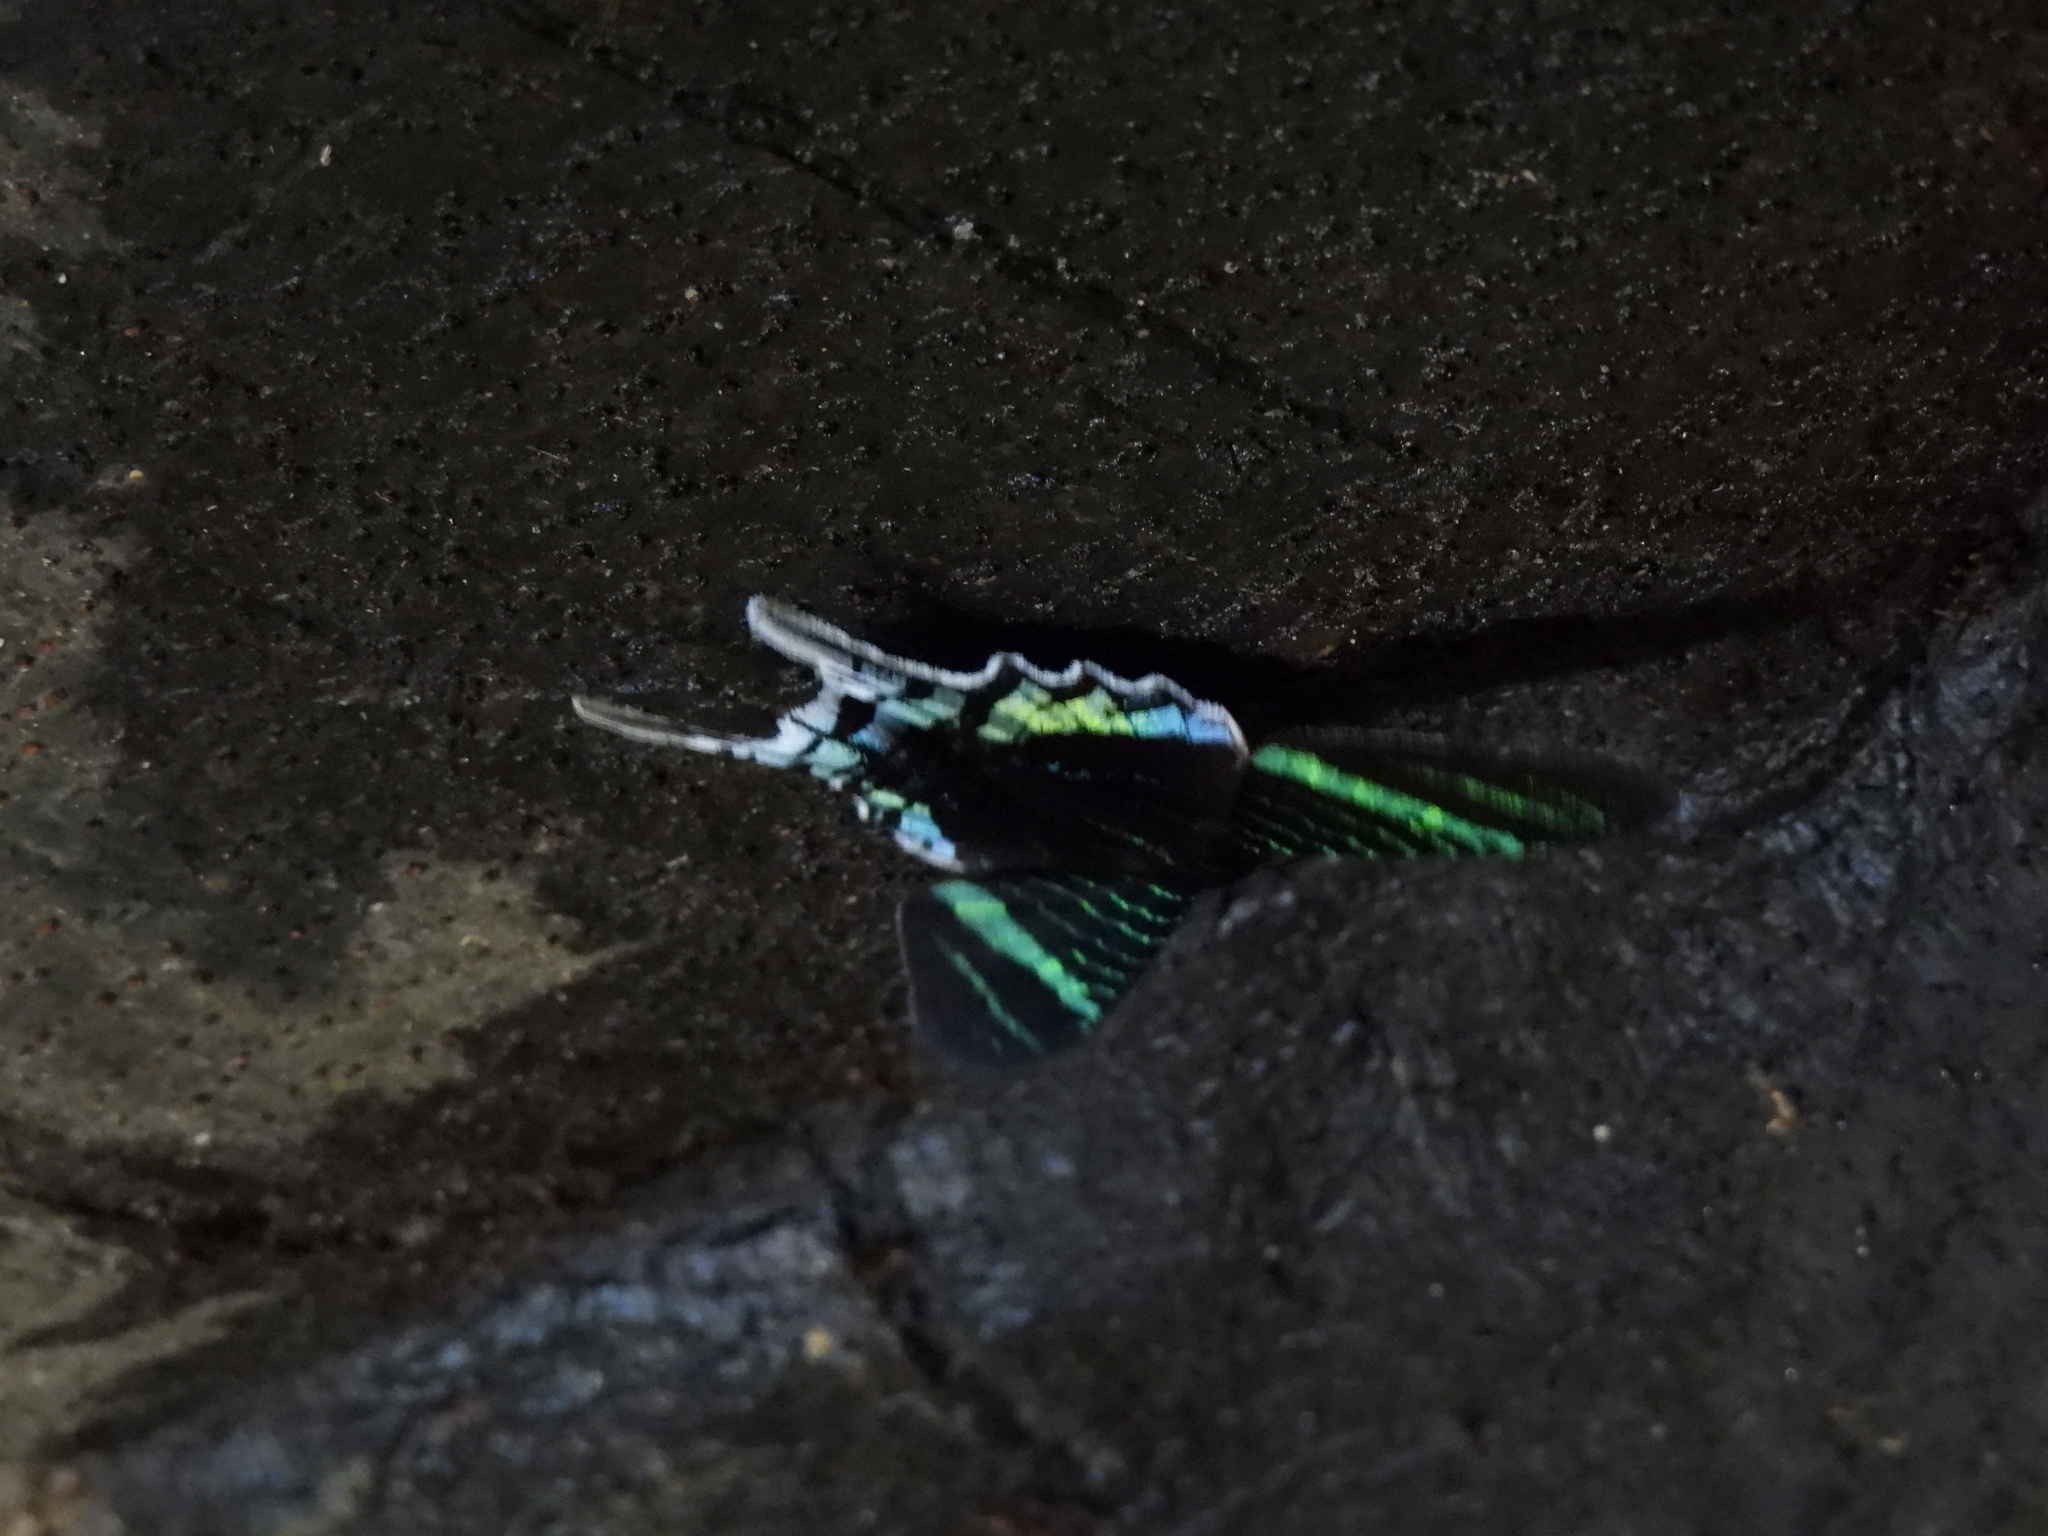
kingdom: Animalia
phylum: Arthropoda
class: Insecta
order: Lepidoptera
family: Uraniidae
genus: Urania
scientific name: Urania leilus
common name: Peacock moth
